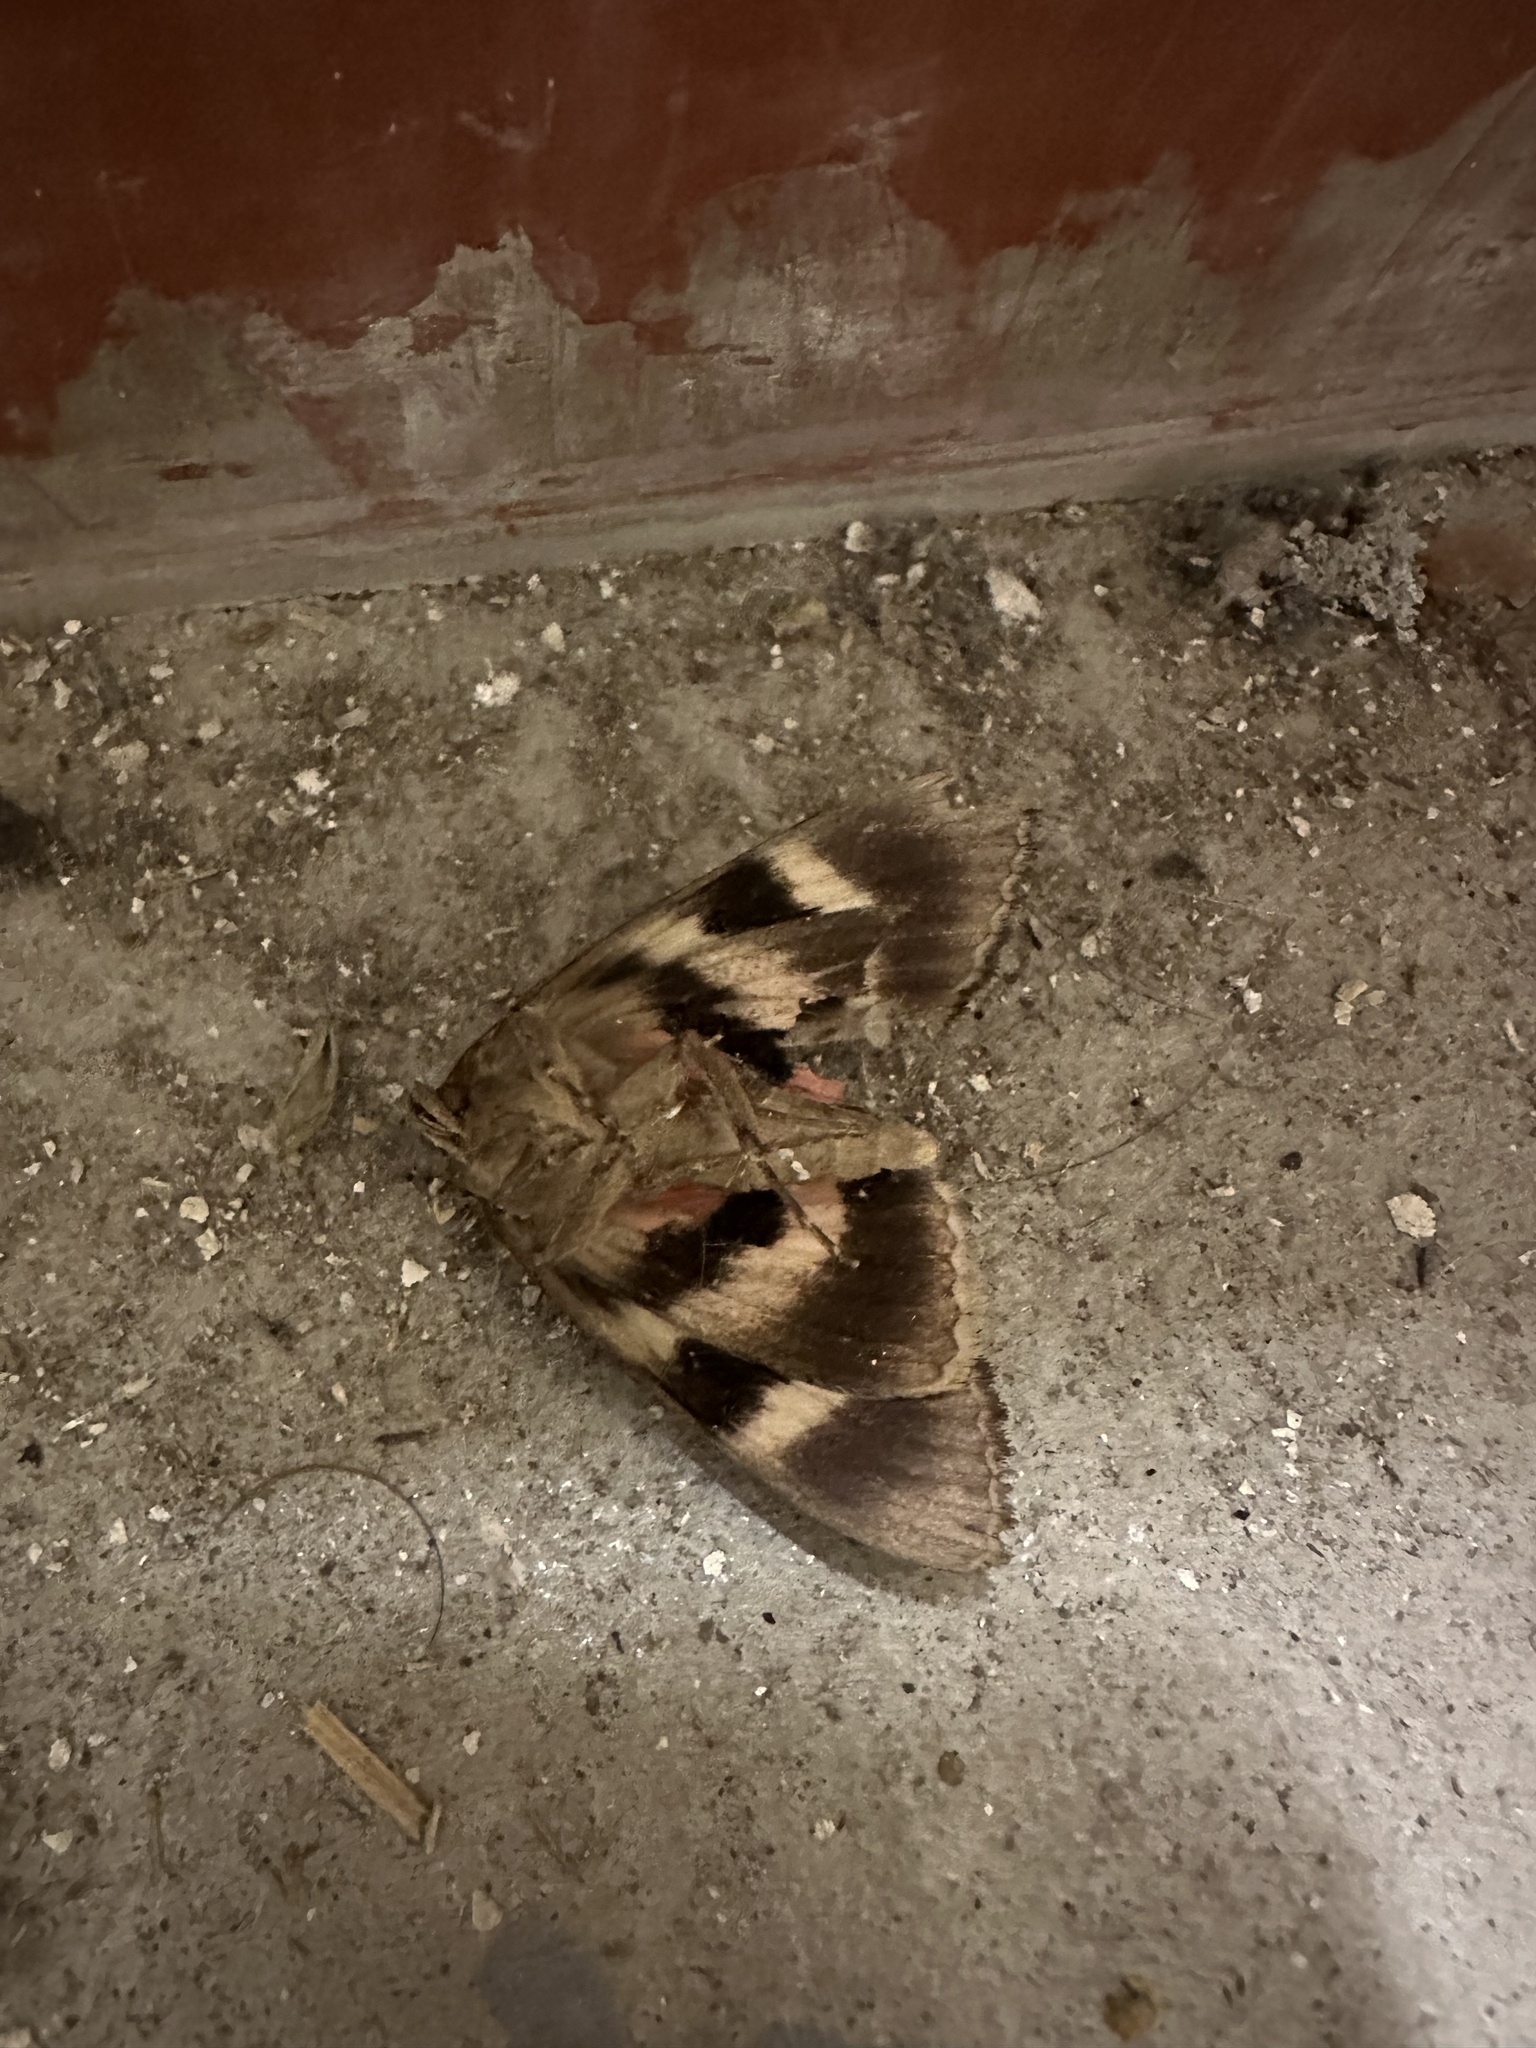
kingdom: Animalia
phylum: Arthropoda
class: Insecta
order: Lepidoptera
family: Erebidae
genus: Catocala
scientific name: Catocala cara
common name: Darling underwing
